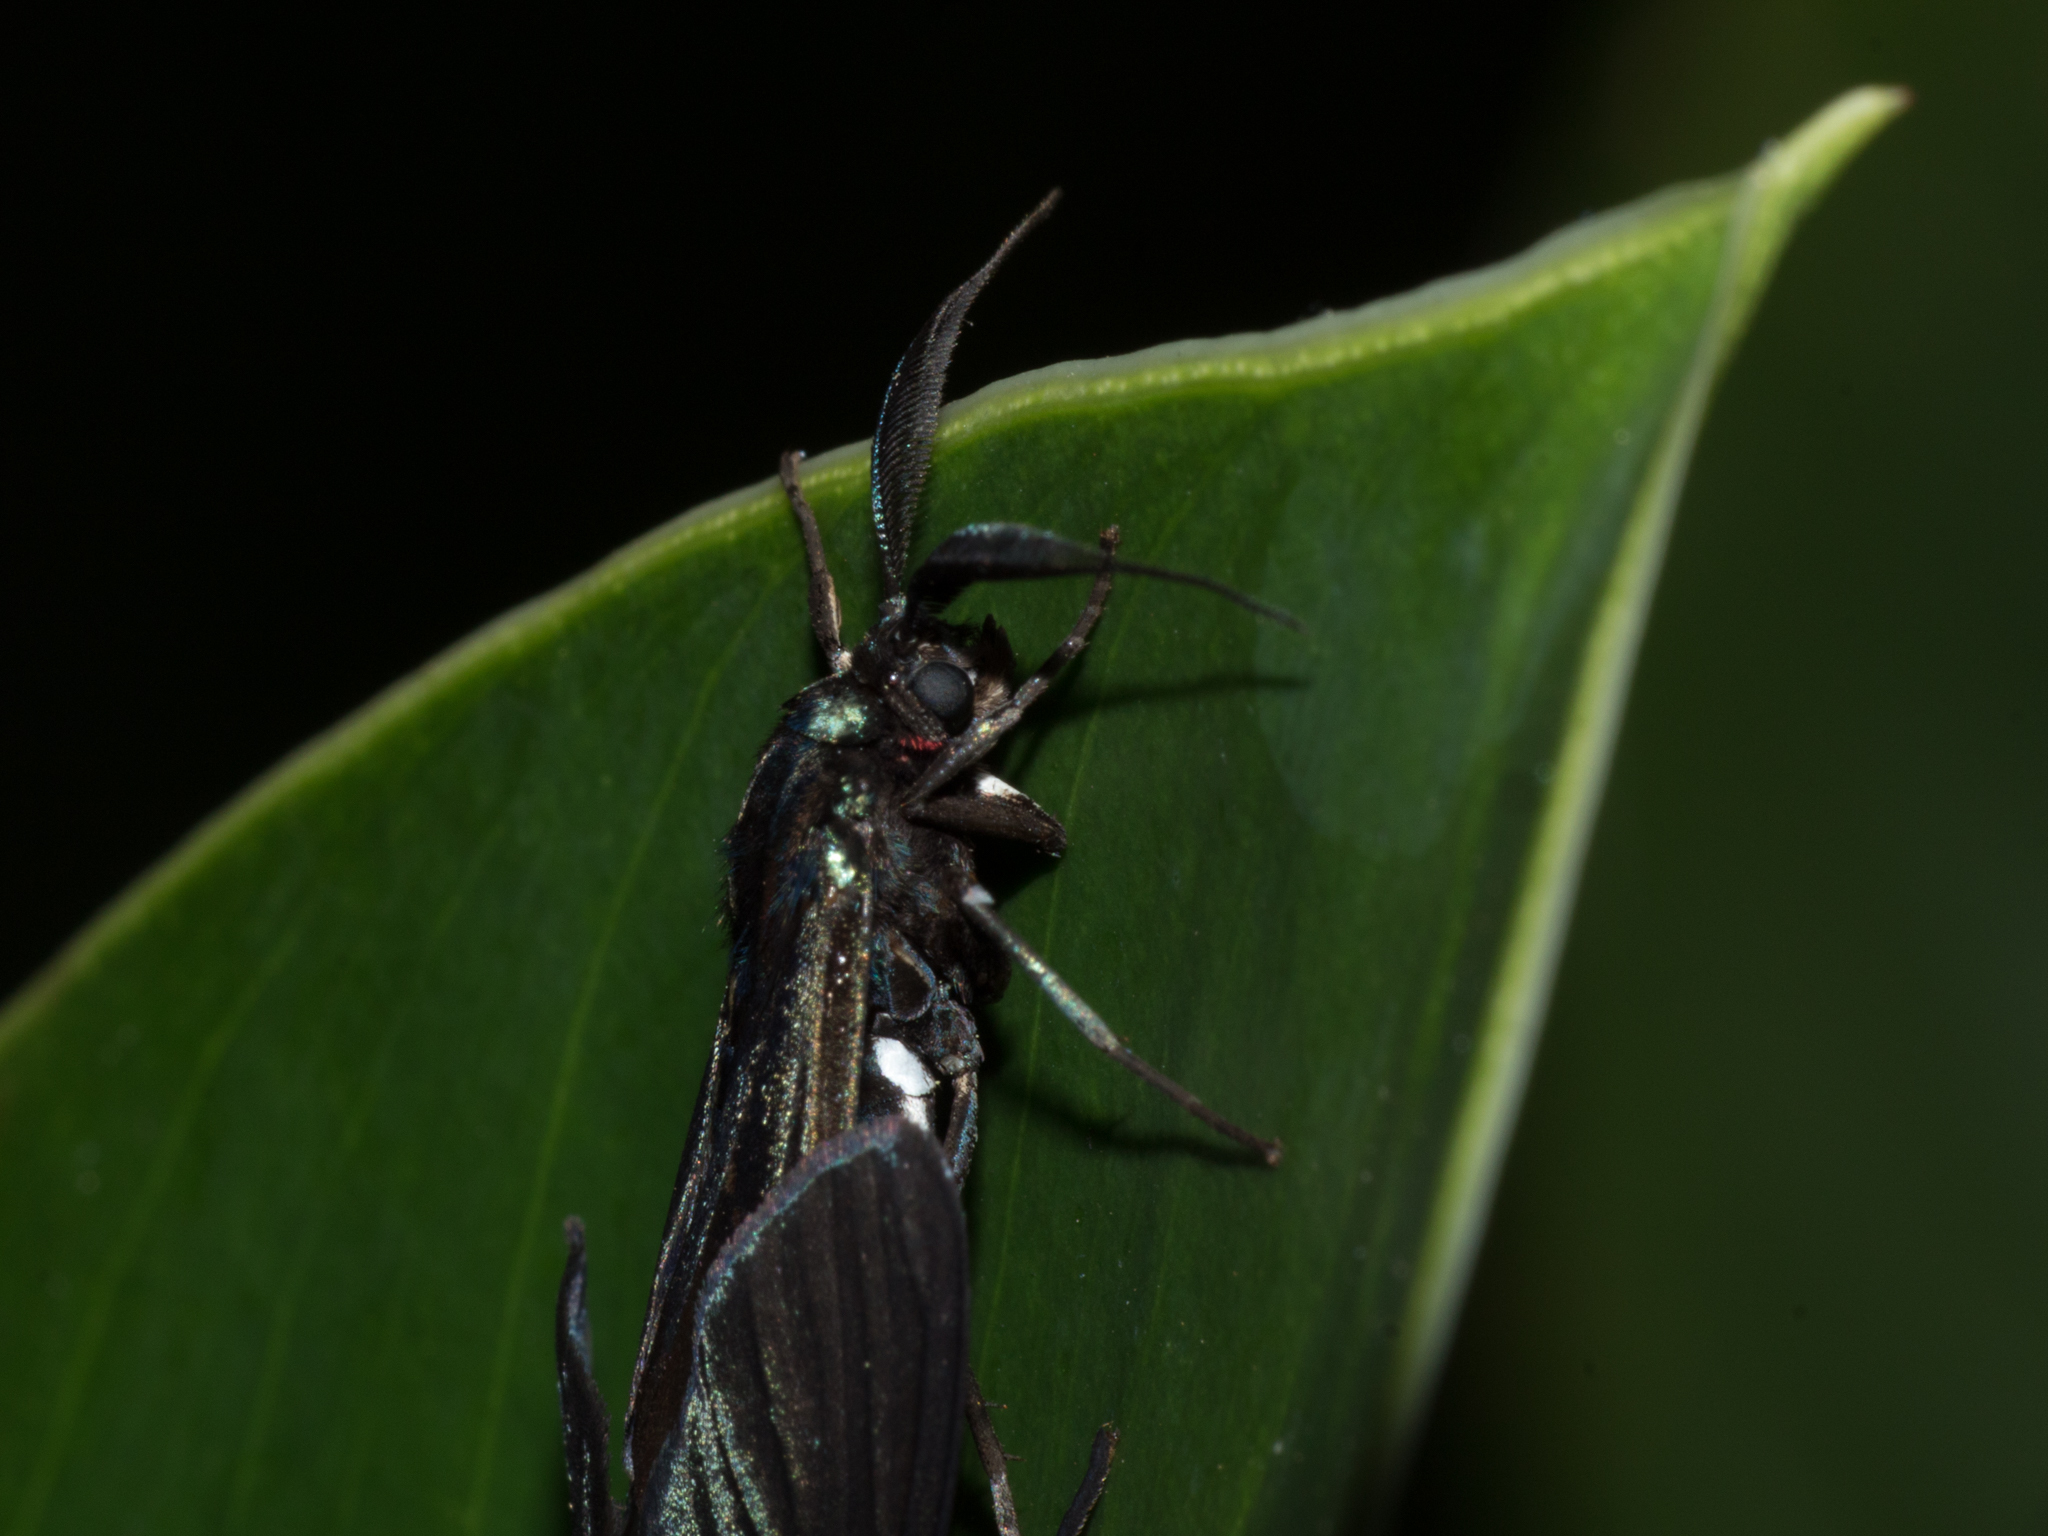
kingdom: Animalia
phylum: Arthropoda
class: Insecta
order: Lepidoptera
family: Erebidae
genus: Antichloris
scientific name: Antichloris eriphia
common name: Banana stowaway
